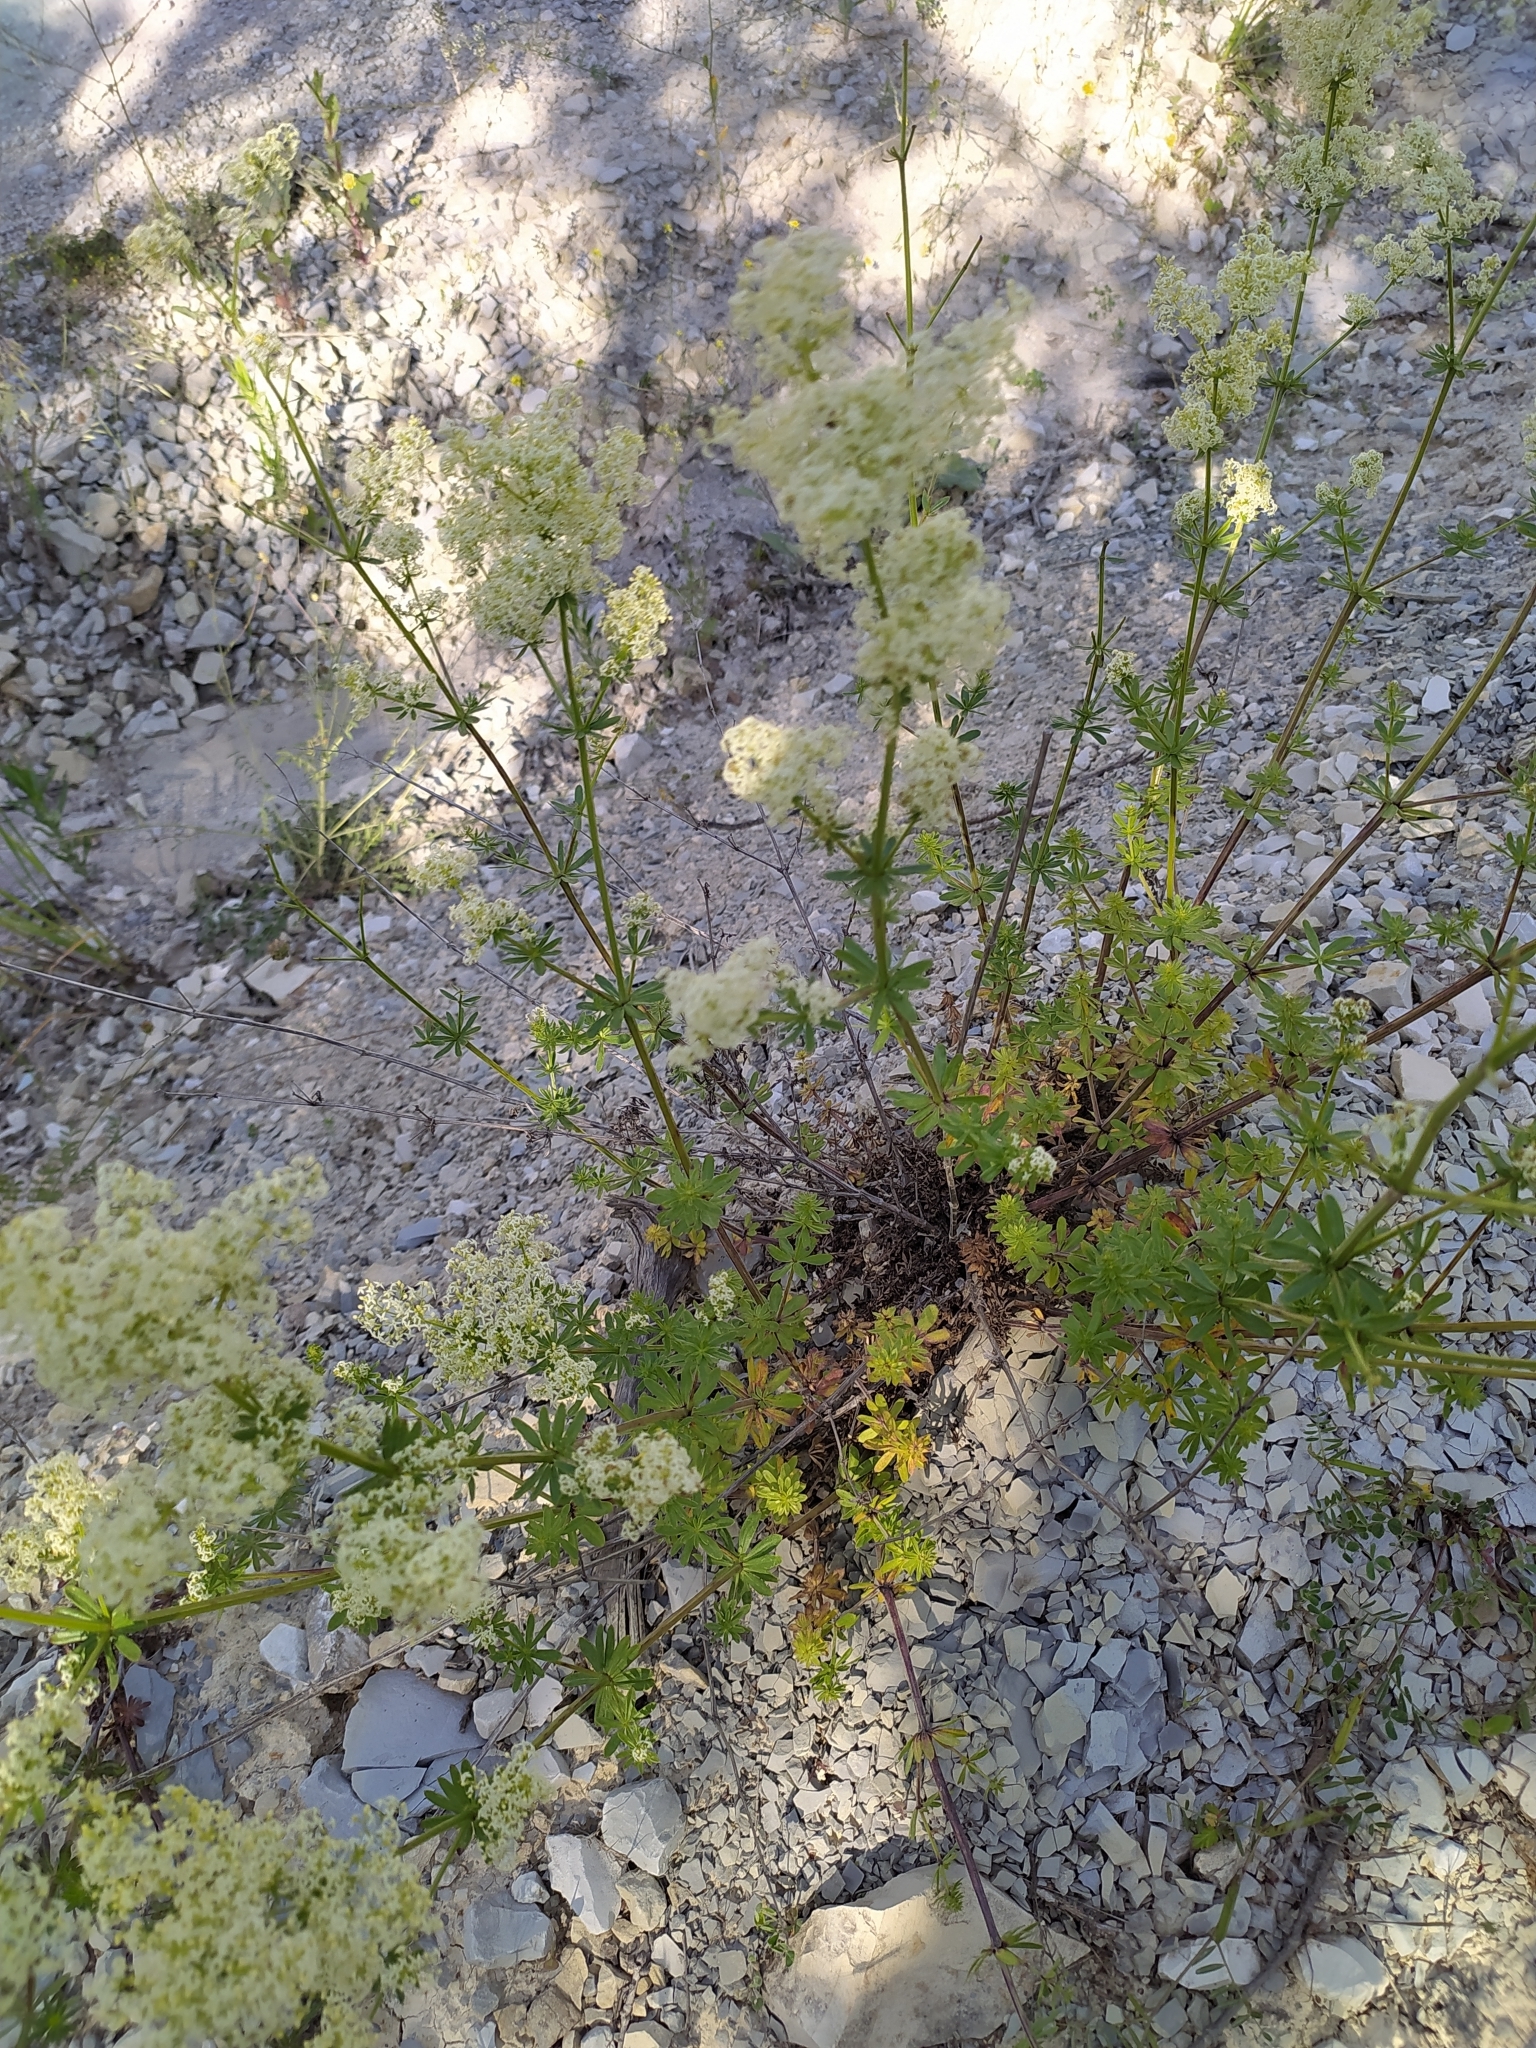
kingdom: Plantae
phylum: Tracheophyta
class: Magnoliopsida
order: Gentianales
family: Rubiaceae
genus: Galium
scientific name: Galium mollugo
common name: Hedge bedstraw
